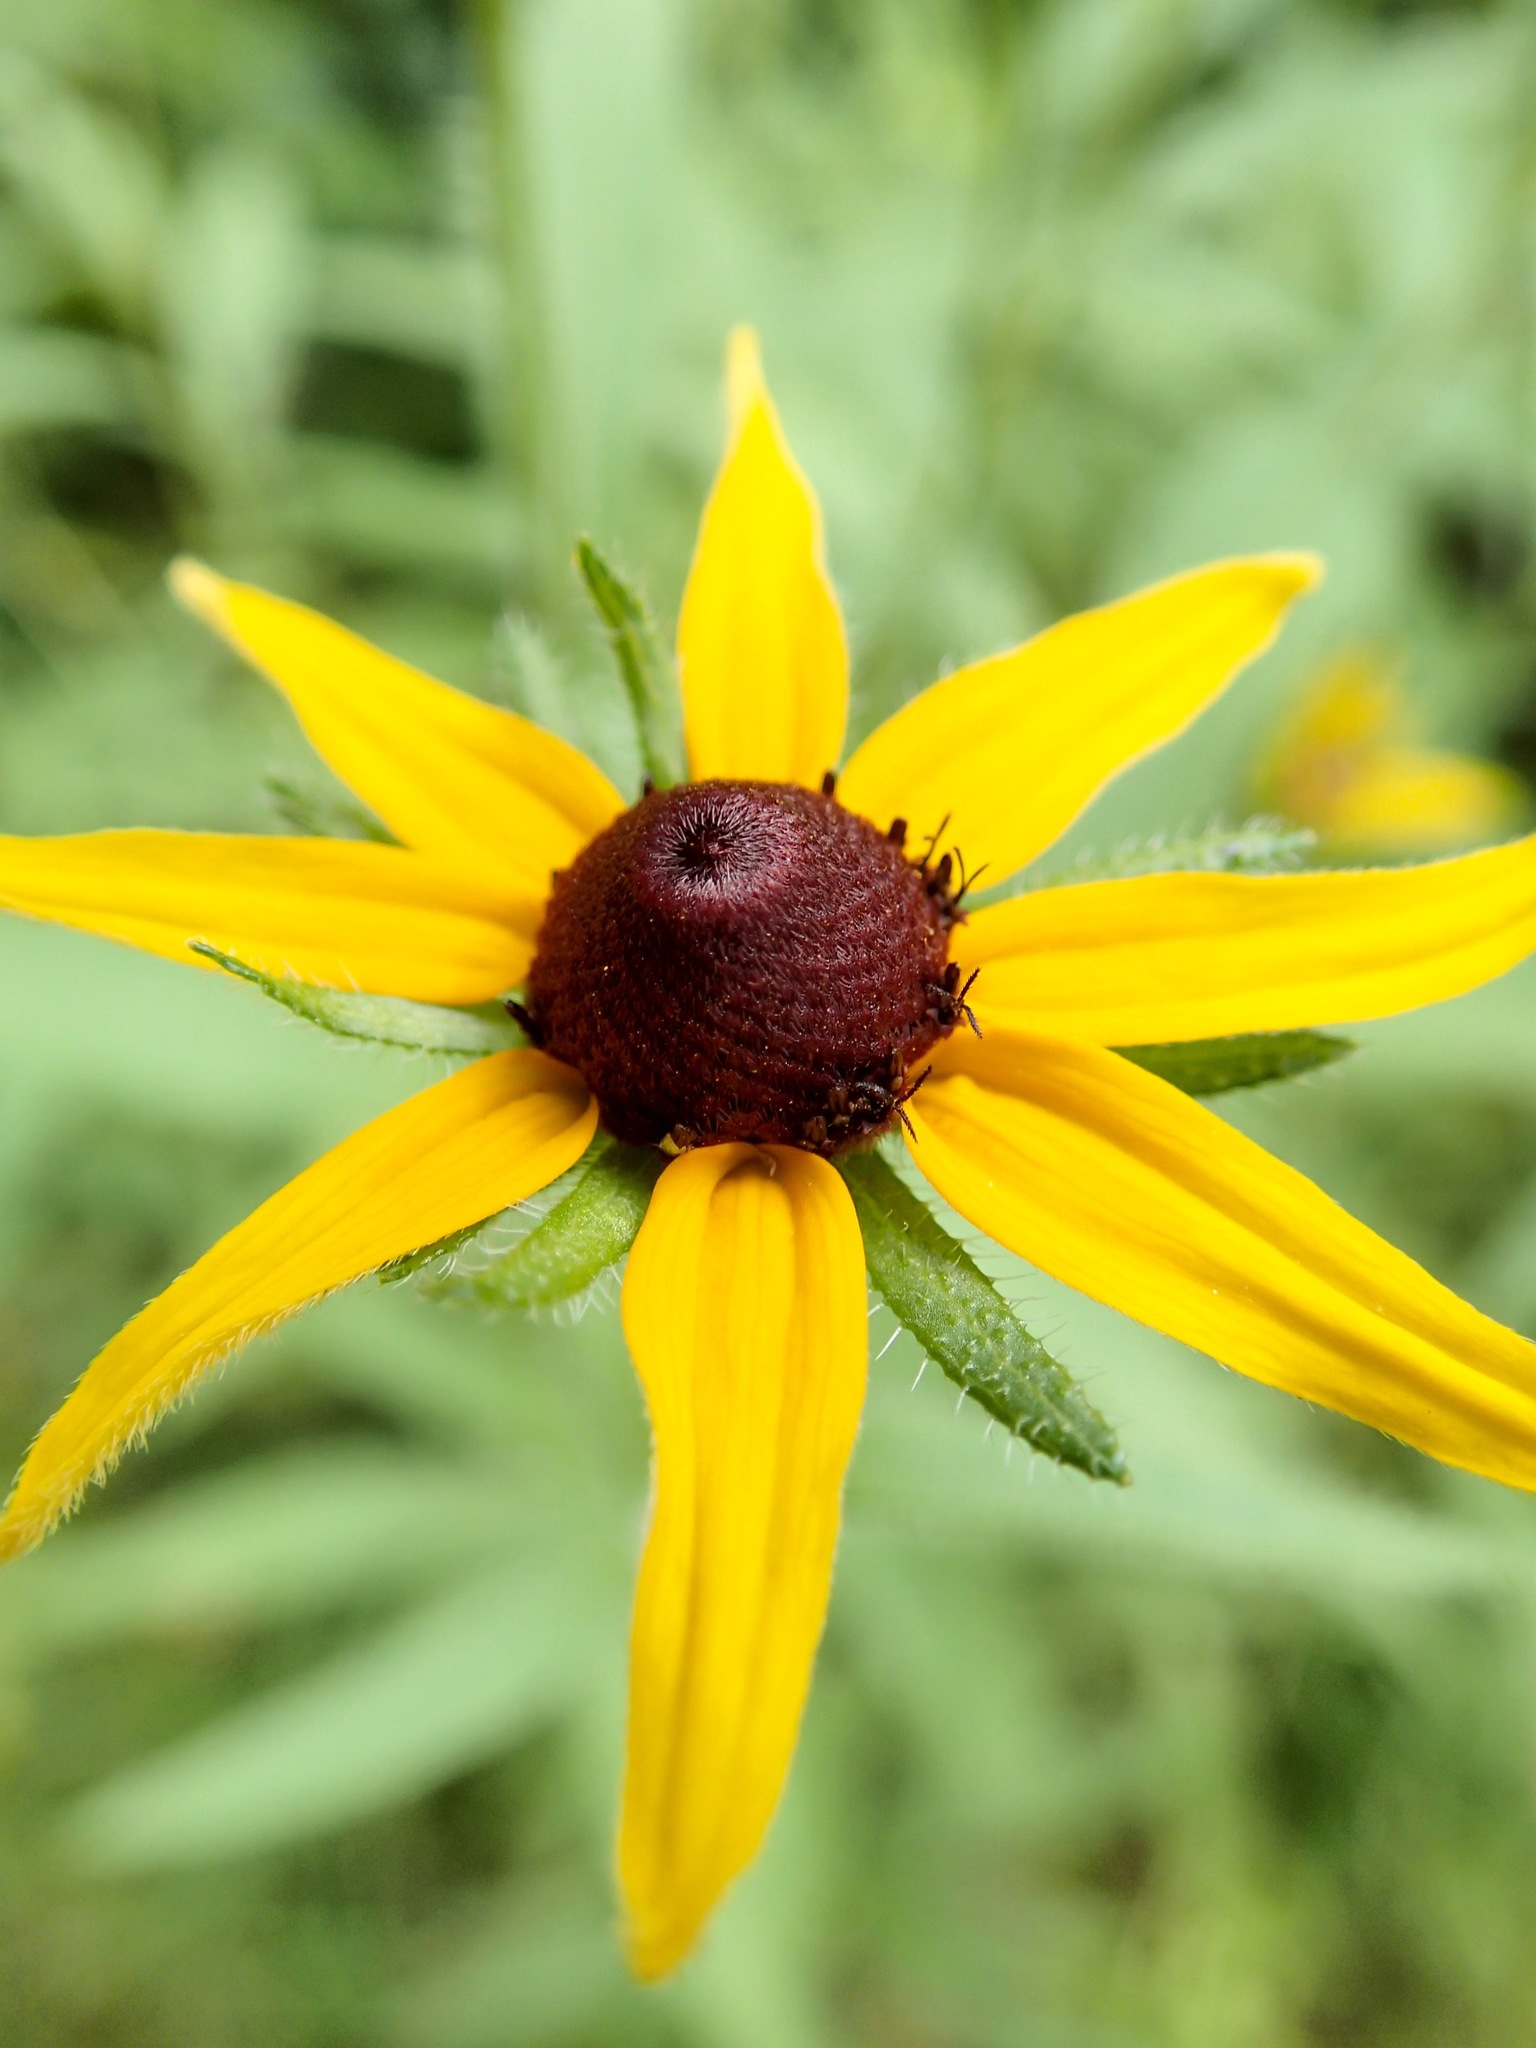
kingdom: Plantae
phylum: Tracheophyta
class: Magnoliopsida
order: Asterales
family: Asteraceae
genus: Rudbeckia
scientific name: Rudbeckia hirta
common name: Black-eyed-susan
